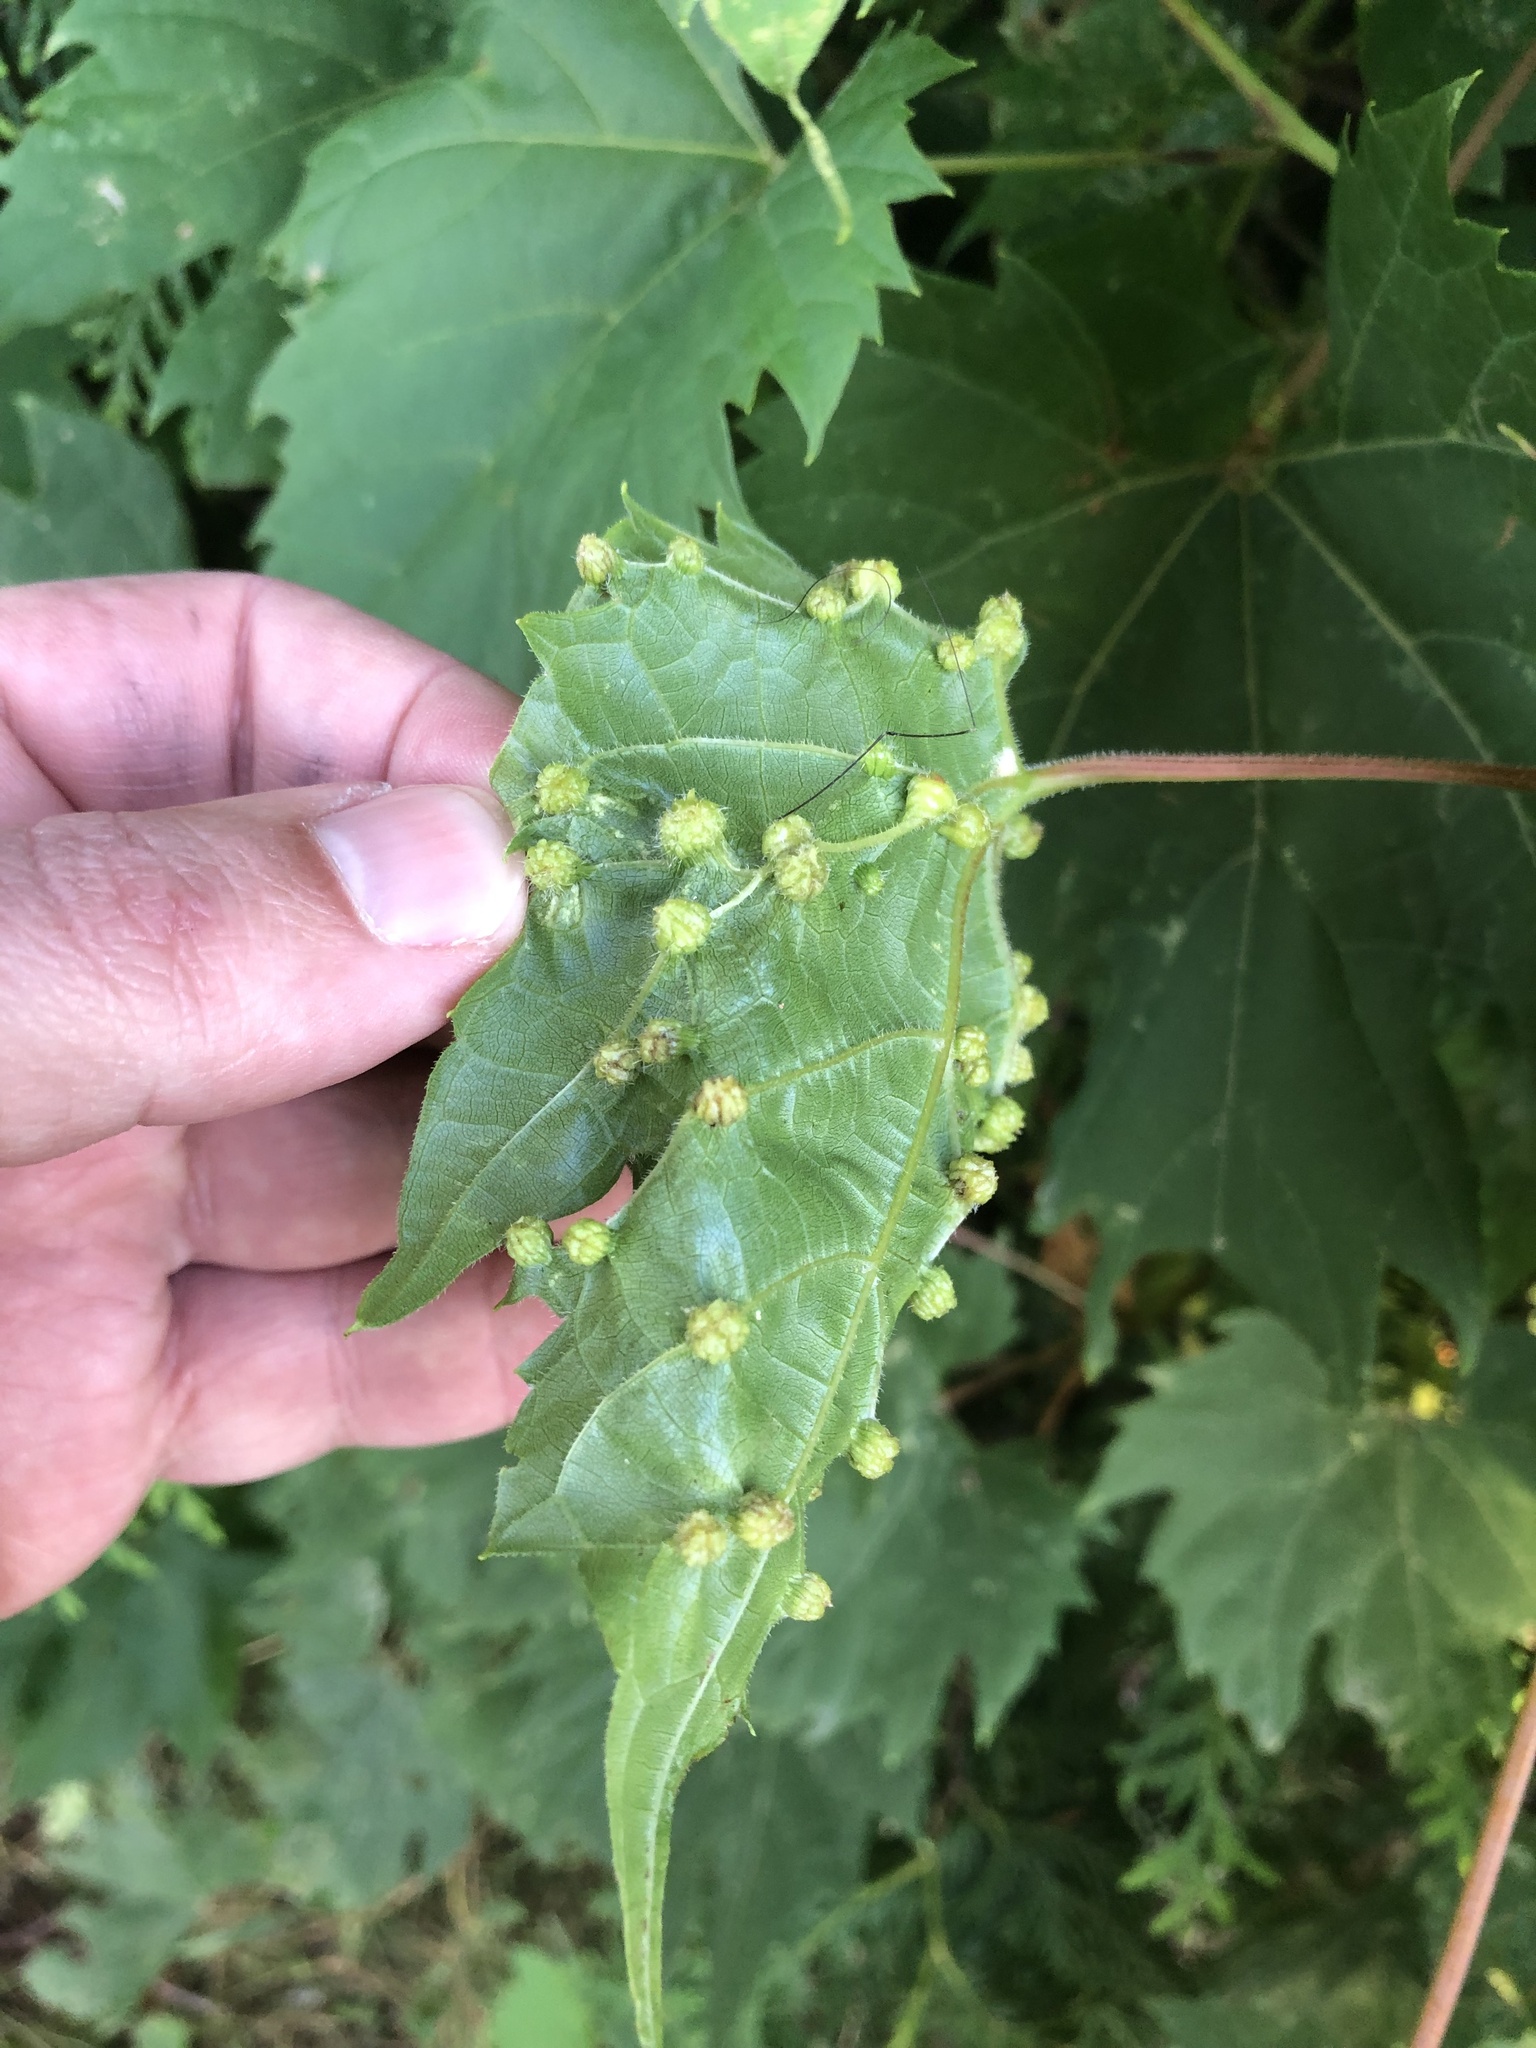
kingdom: Animalia
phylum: Arthropoda
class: Insecta
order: Hemiptera
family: Phylloxeridae
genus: Daktulosphaira
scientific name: Daktulosphaira vitifoliae
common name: Grape phylloxera
